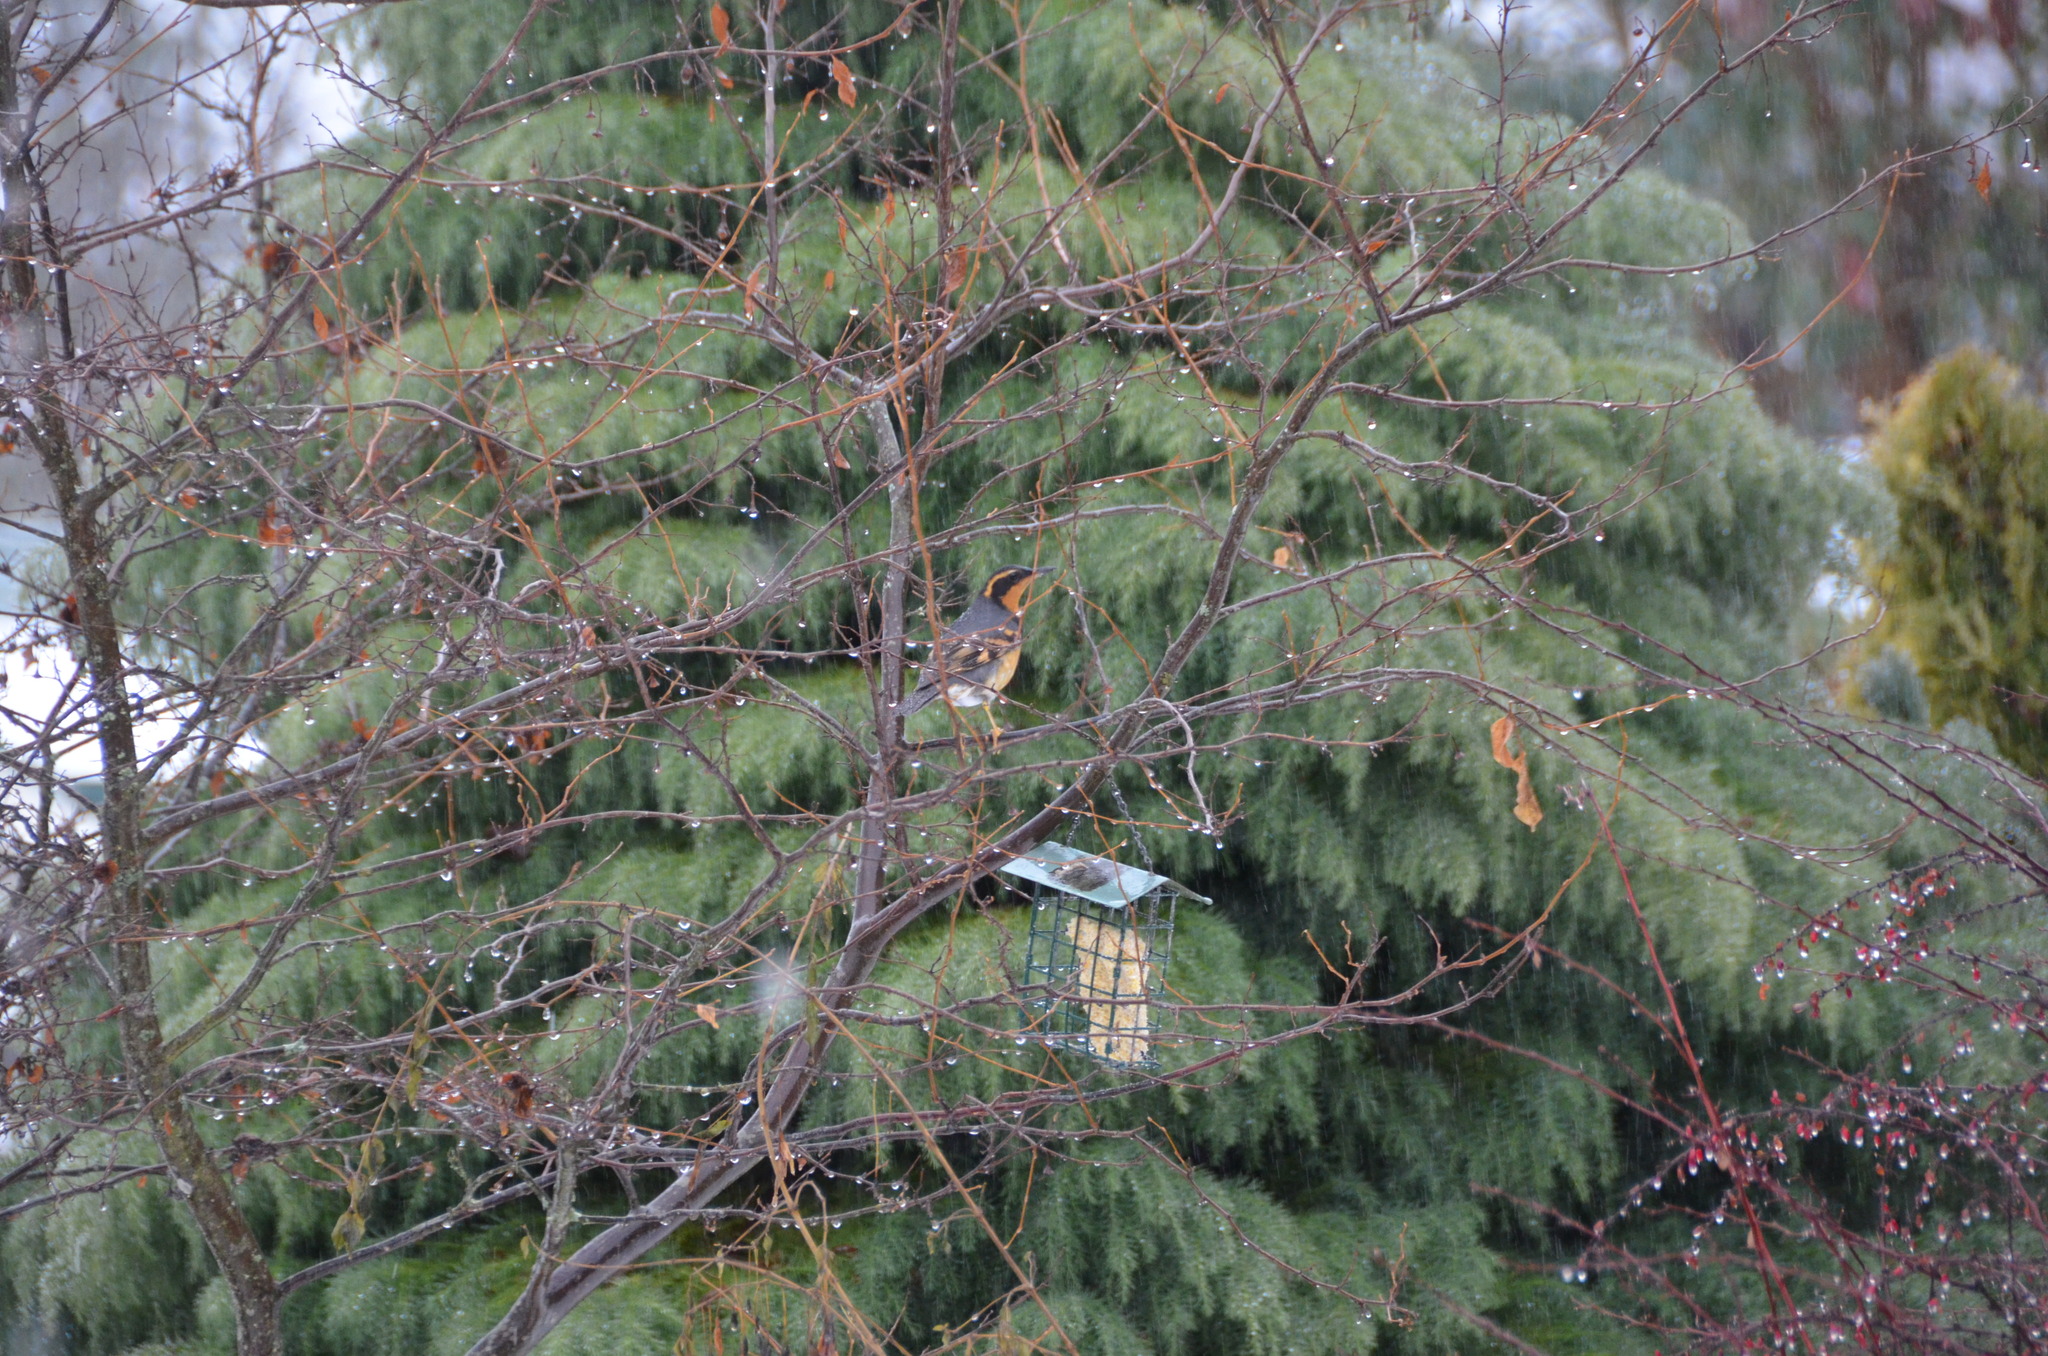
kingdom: Animalia
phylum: Chordata
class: Aves
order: Passeriformes
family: Turdidae
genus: Ixoreus
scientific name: Ixoreus naevius
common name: Varied thrush
